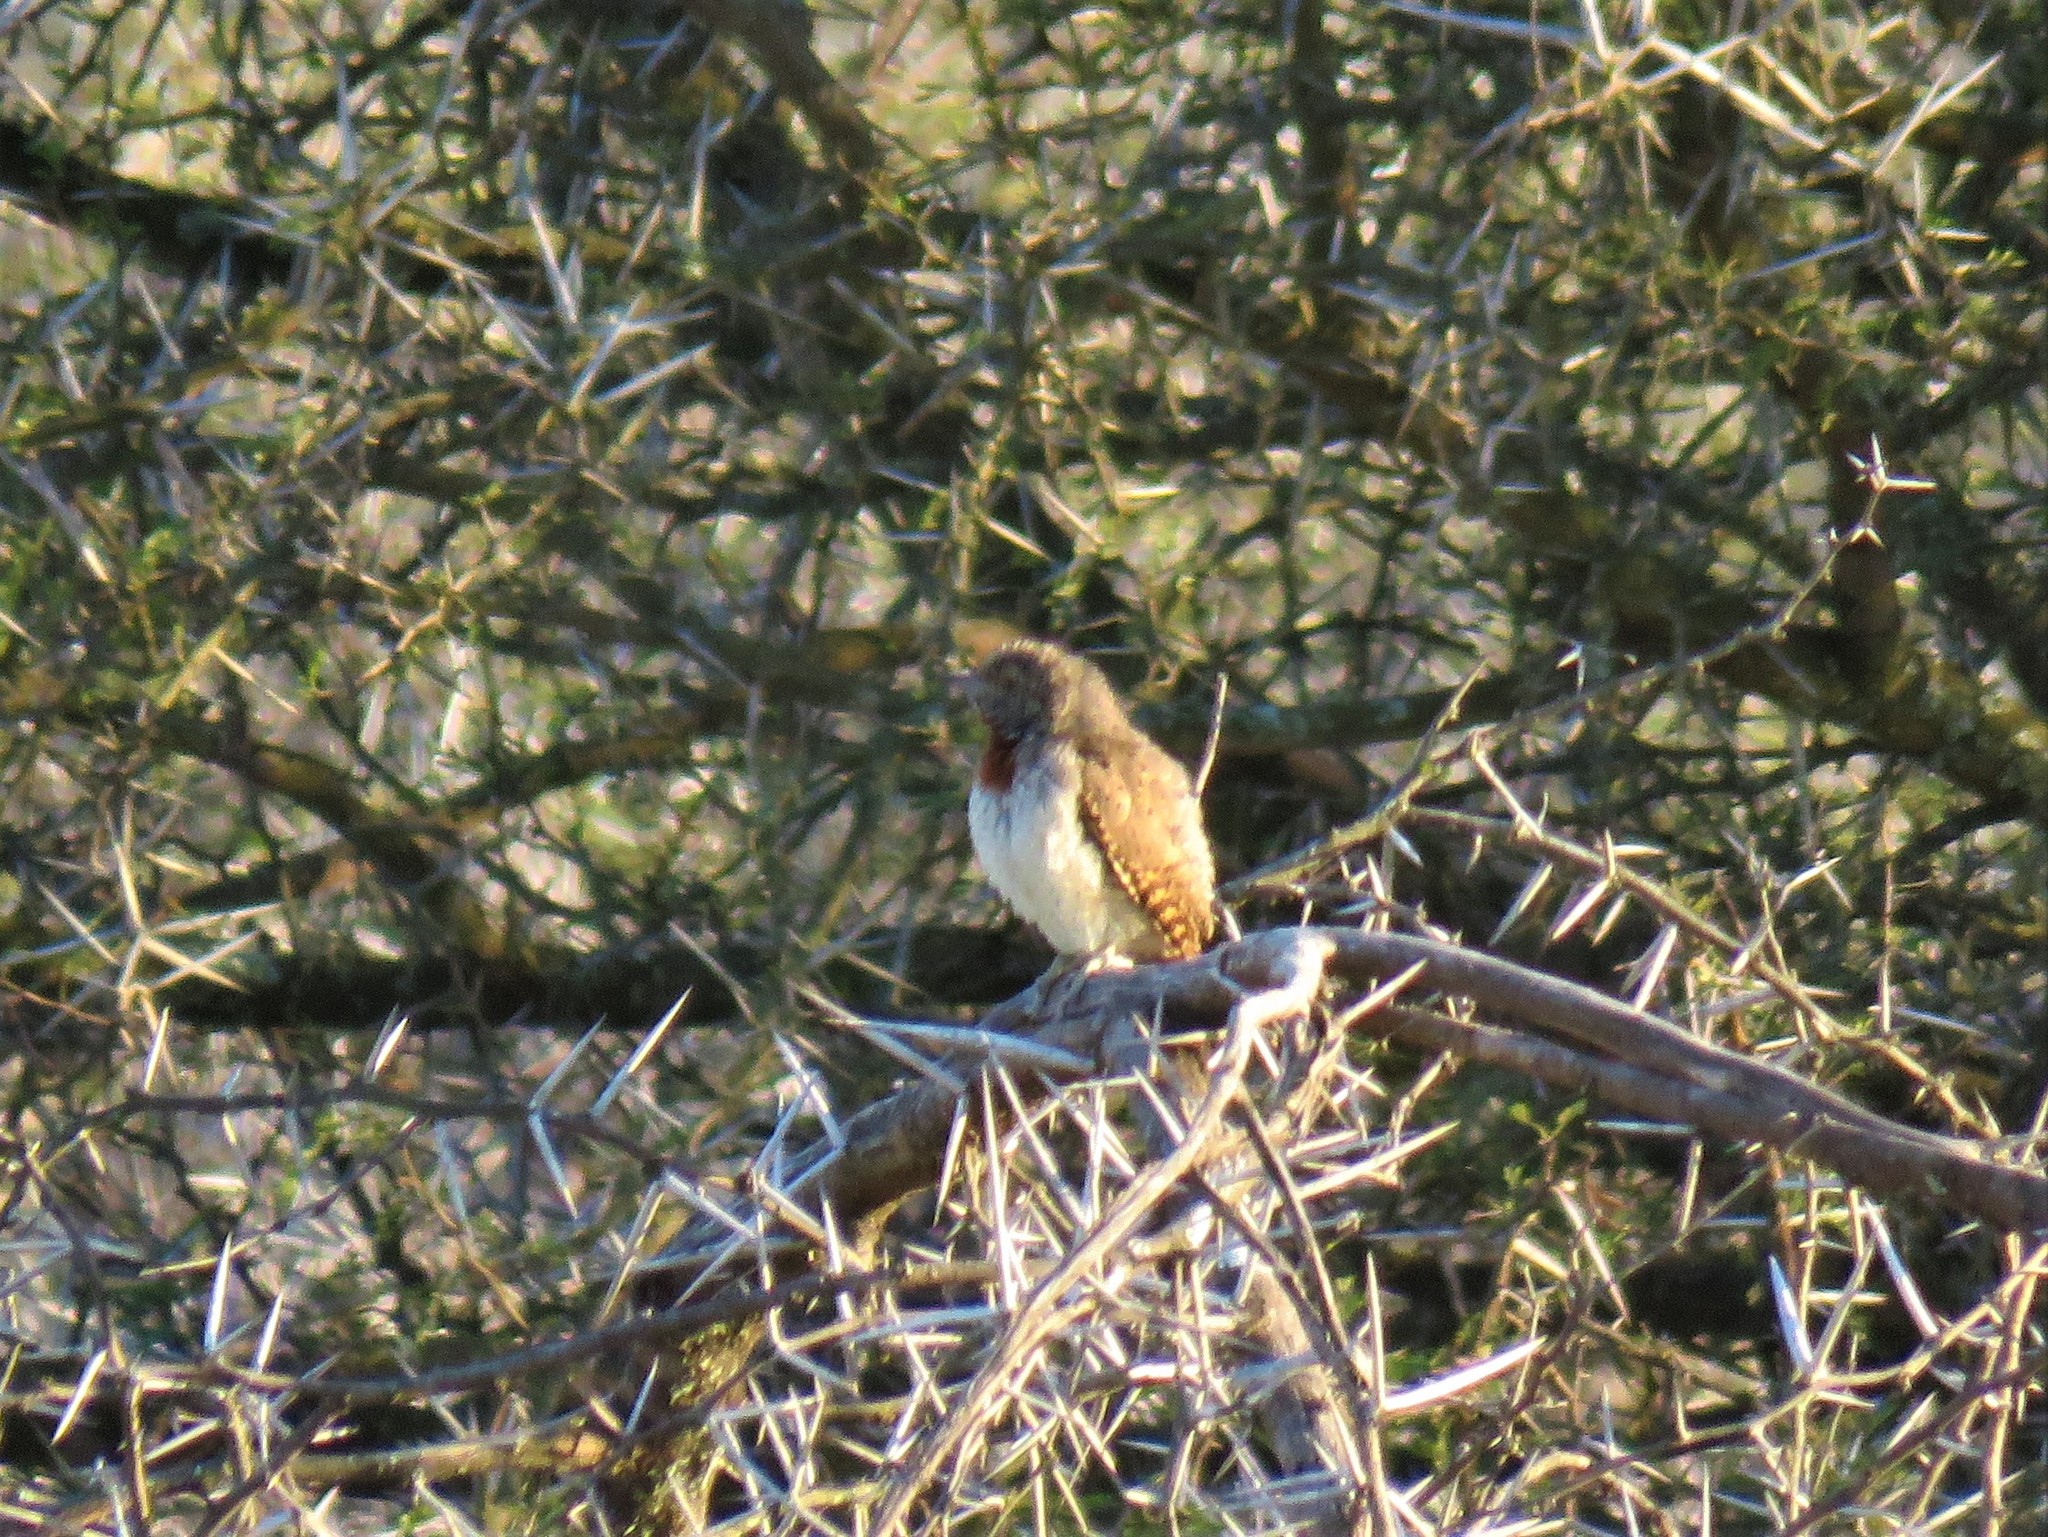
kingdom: Animalia
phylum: Chordata
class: Aves
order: Piciformes
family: Picidae
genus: Jynx
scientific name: Jynx ruficollis
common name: Red-throated wryneck
